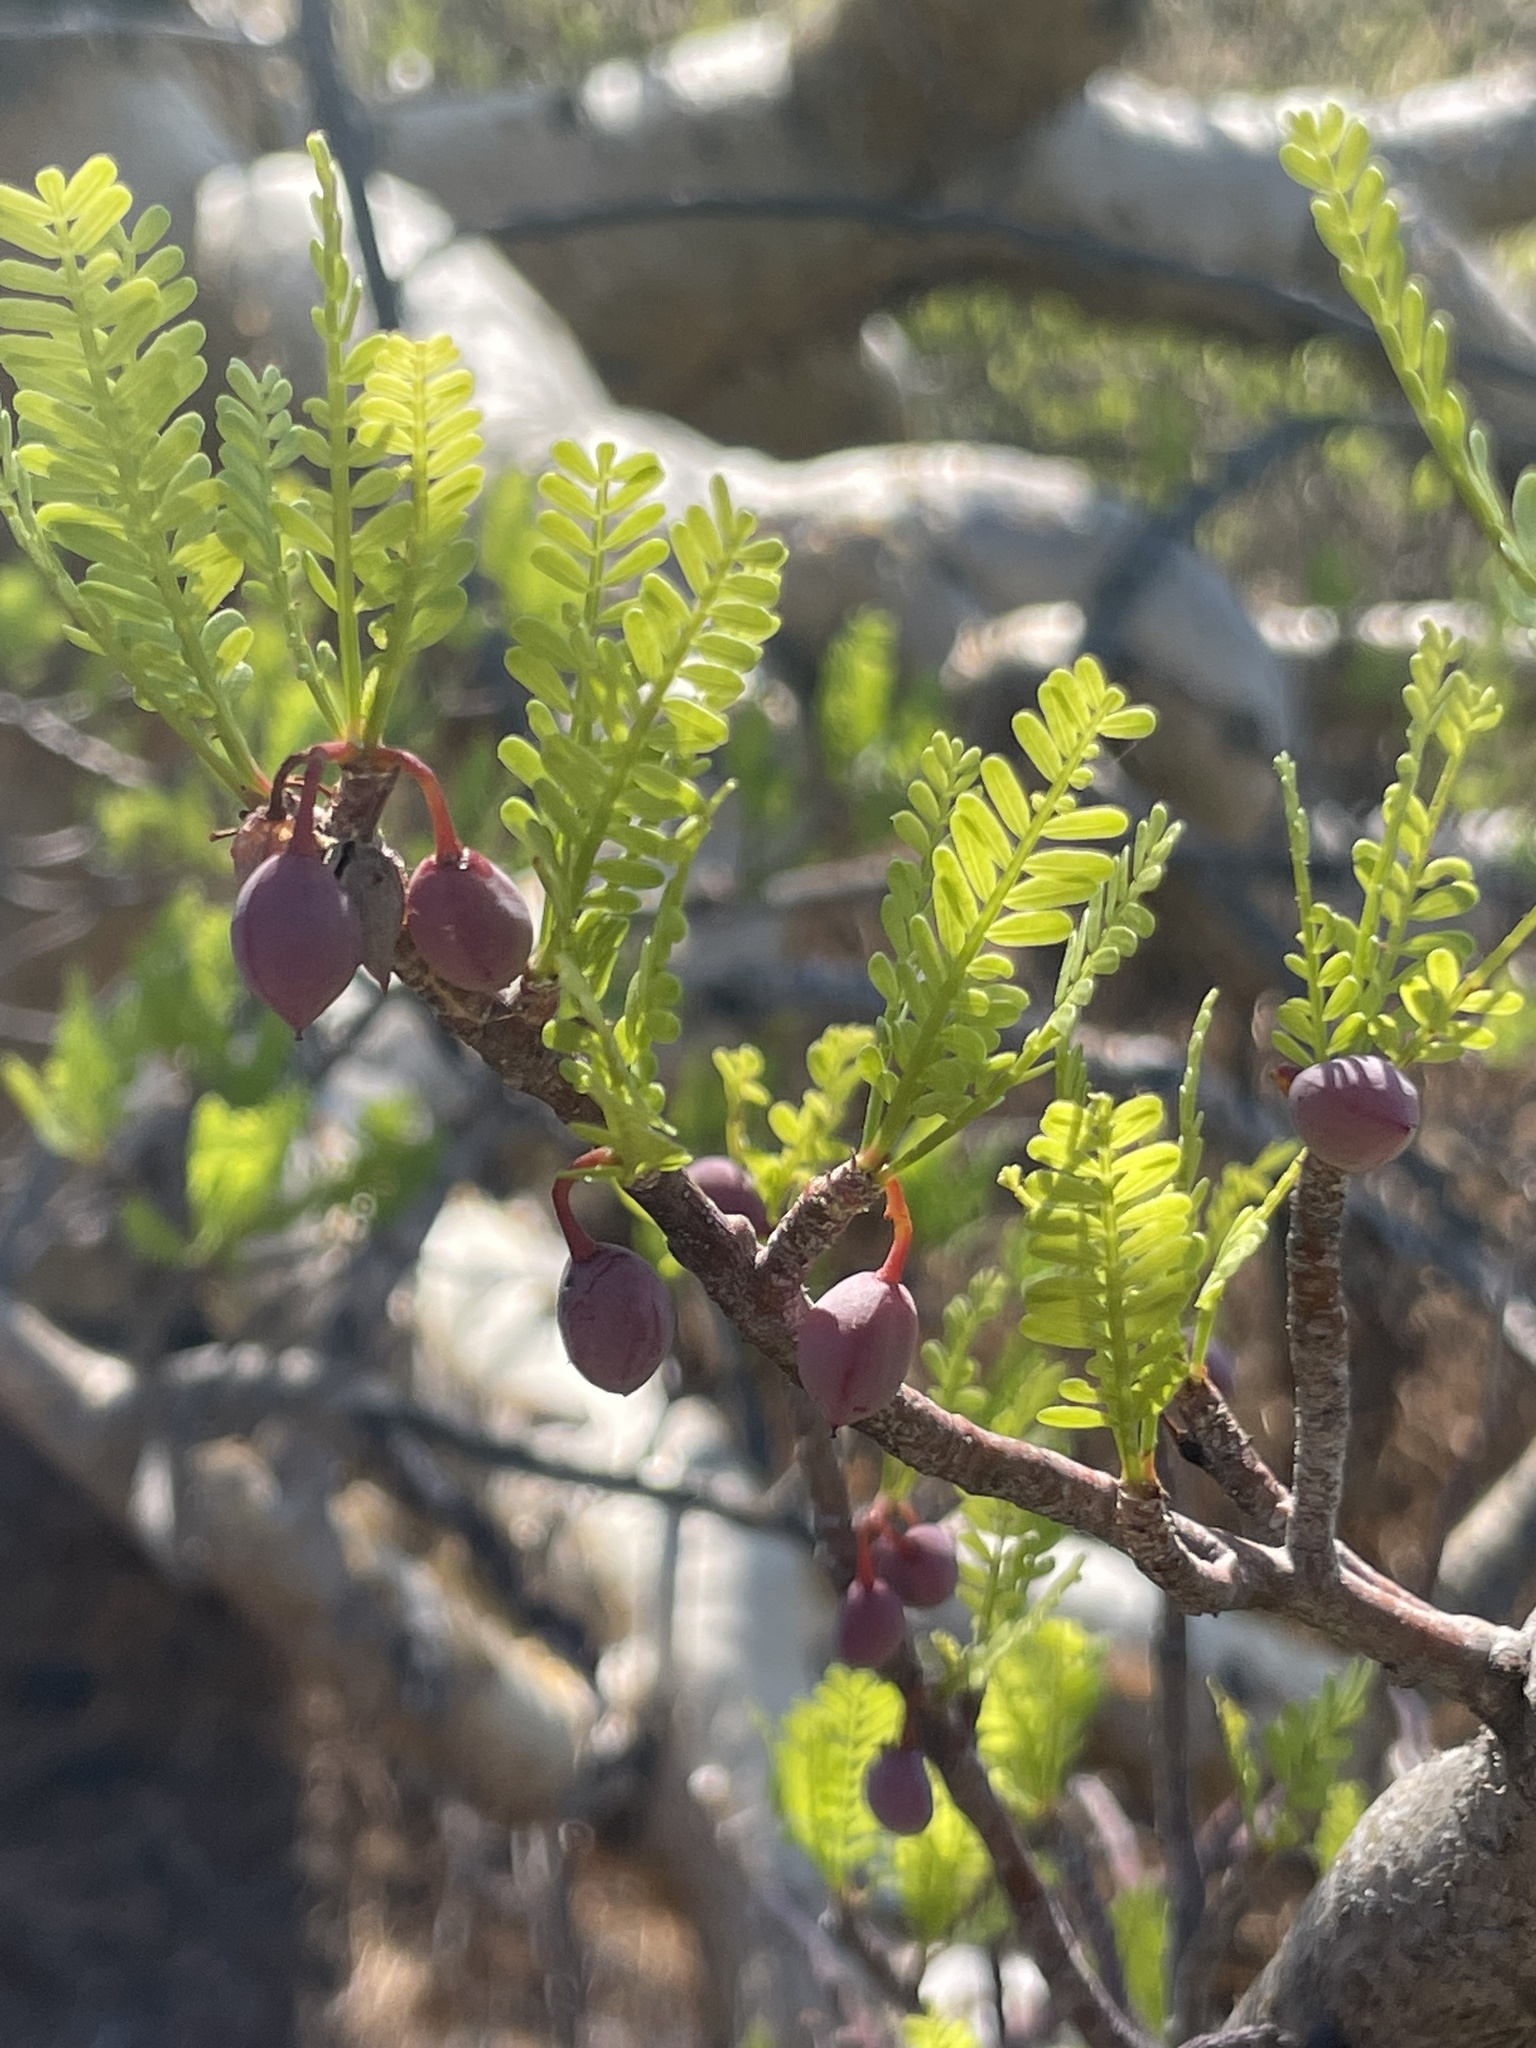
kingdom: Plantae
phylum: Tracheophyta
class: Magnoliopsida
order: Sapindales
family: Burseraceae
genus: Bursera
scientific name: Bursera microphylla
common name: Elephant tree
